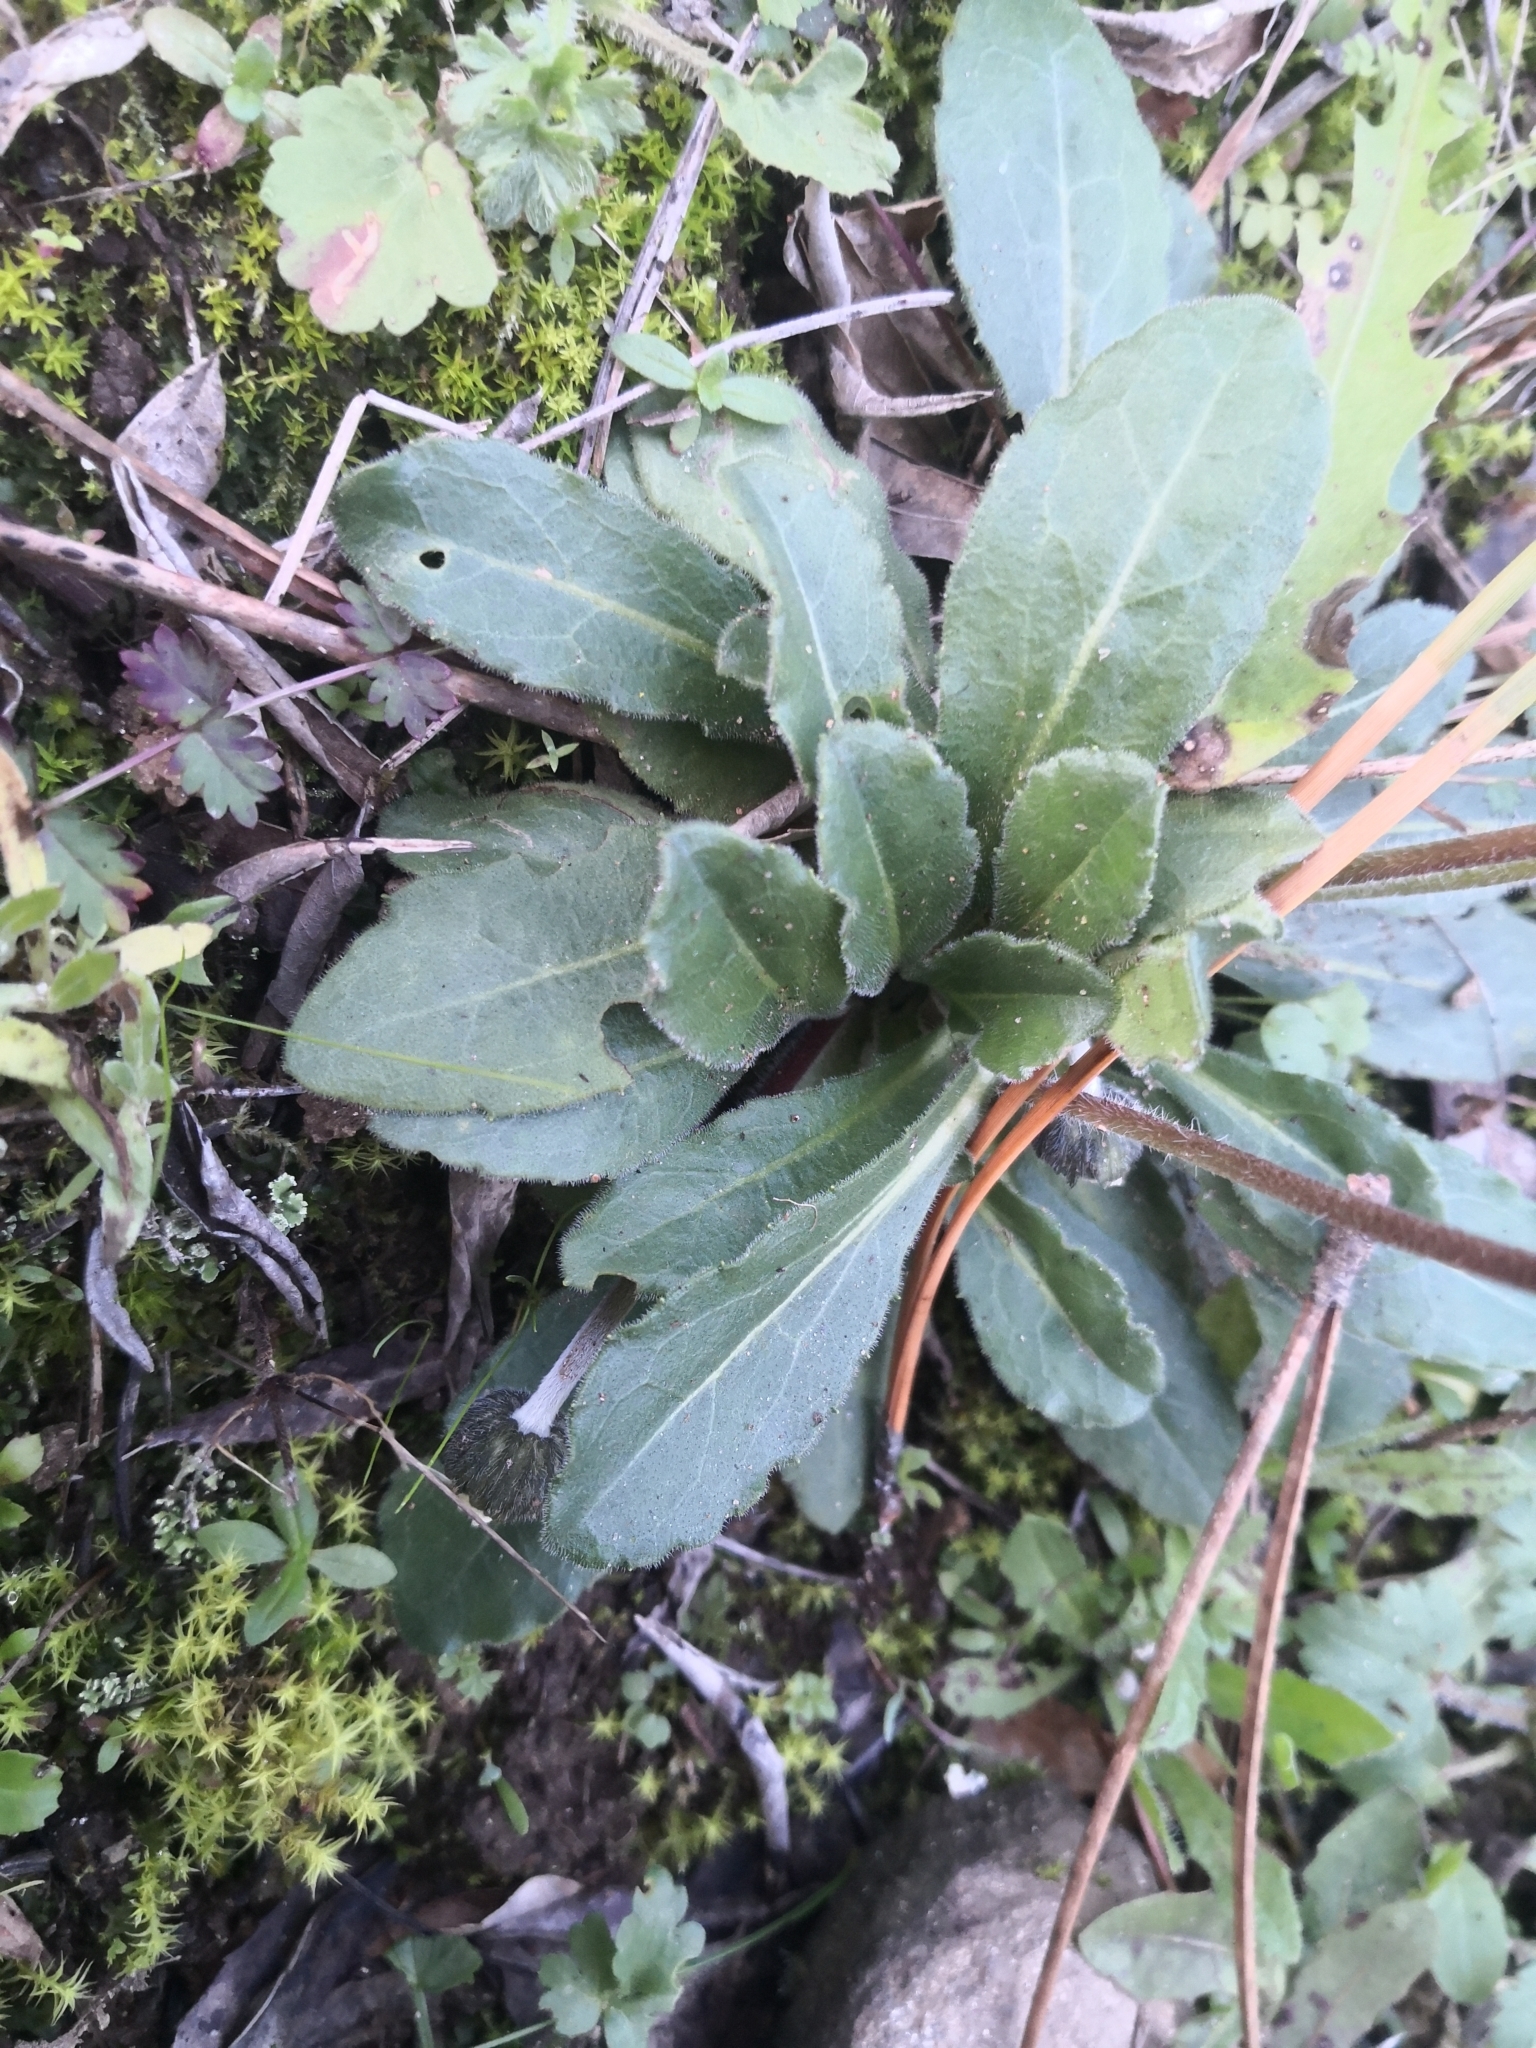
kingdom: Plantae
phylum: Tracheophyta
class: Magnoliopsida
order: Asterales
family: Asteraceae
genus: Bellis
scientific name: Bellis sylvestris
